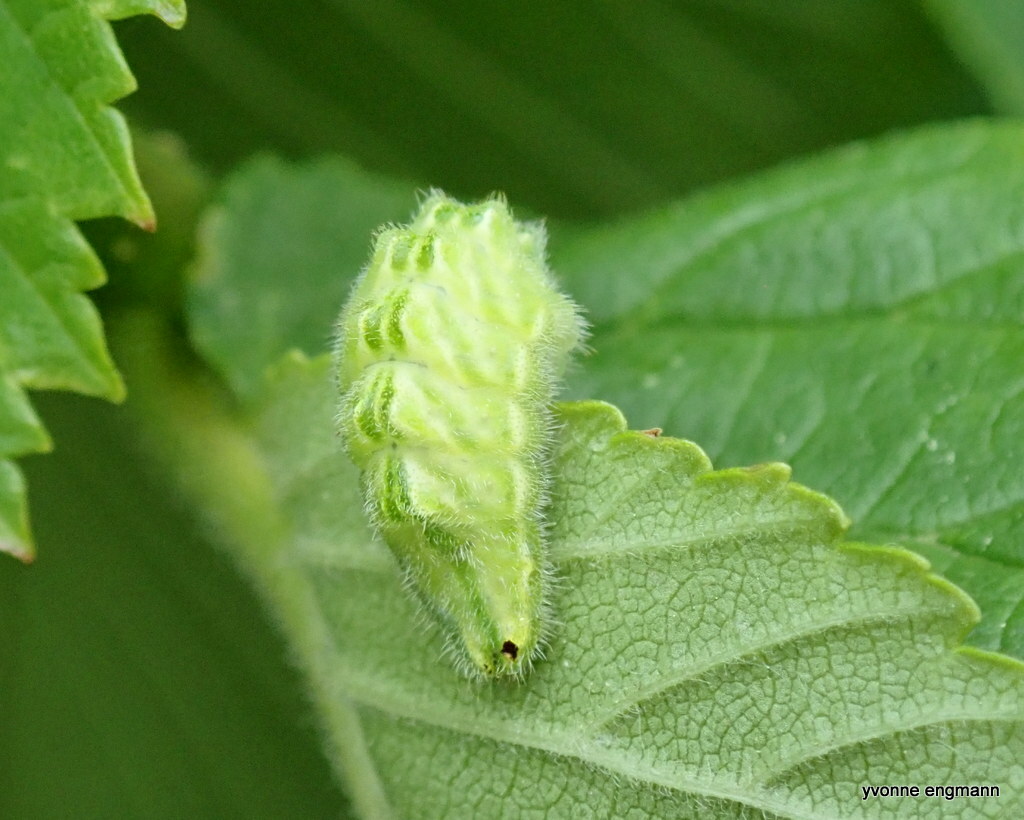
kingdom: Animalia
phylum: Arthropoda
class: Insecta
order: Lepidoptera
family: Lycaenidae
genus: Satyrium
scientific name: Satyrium w-album
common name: White-letter hairstreak
